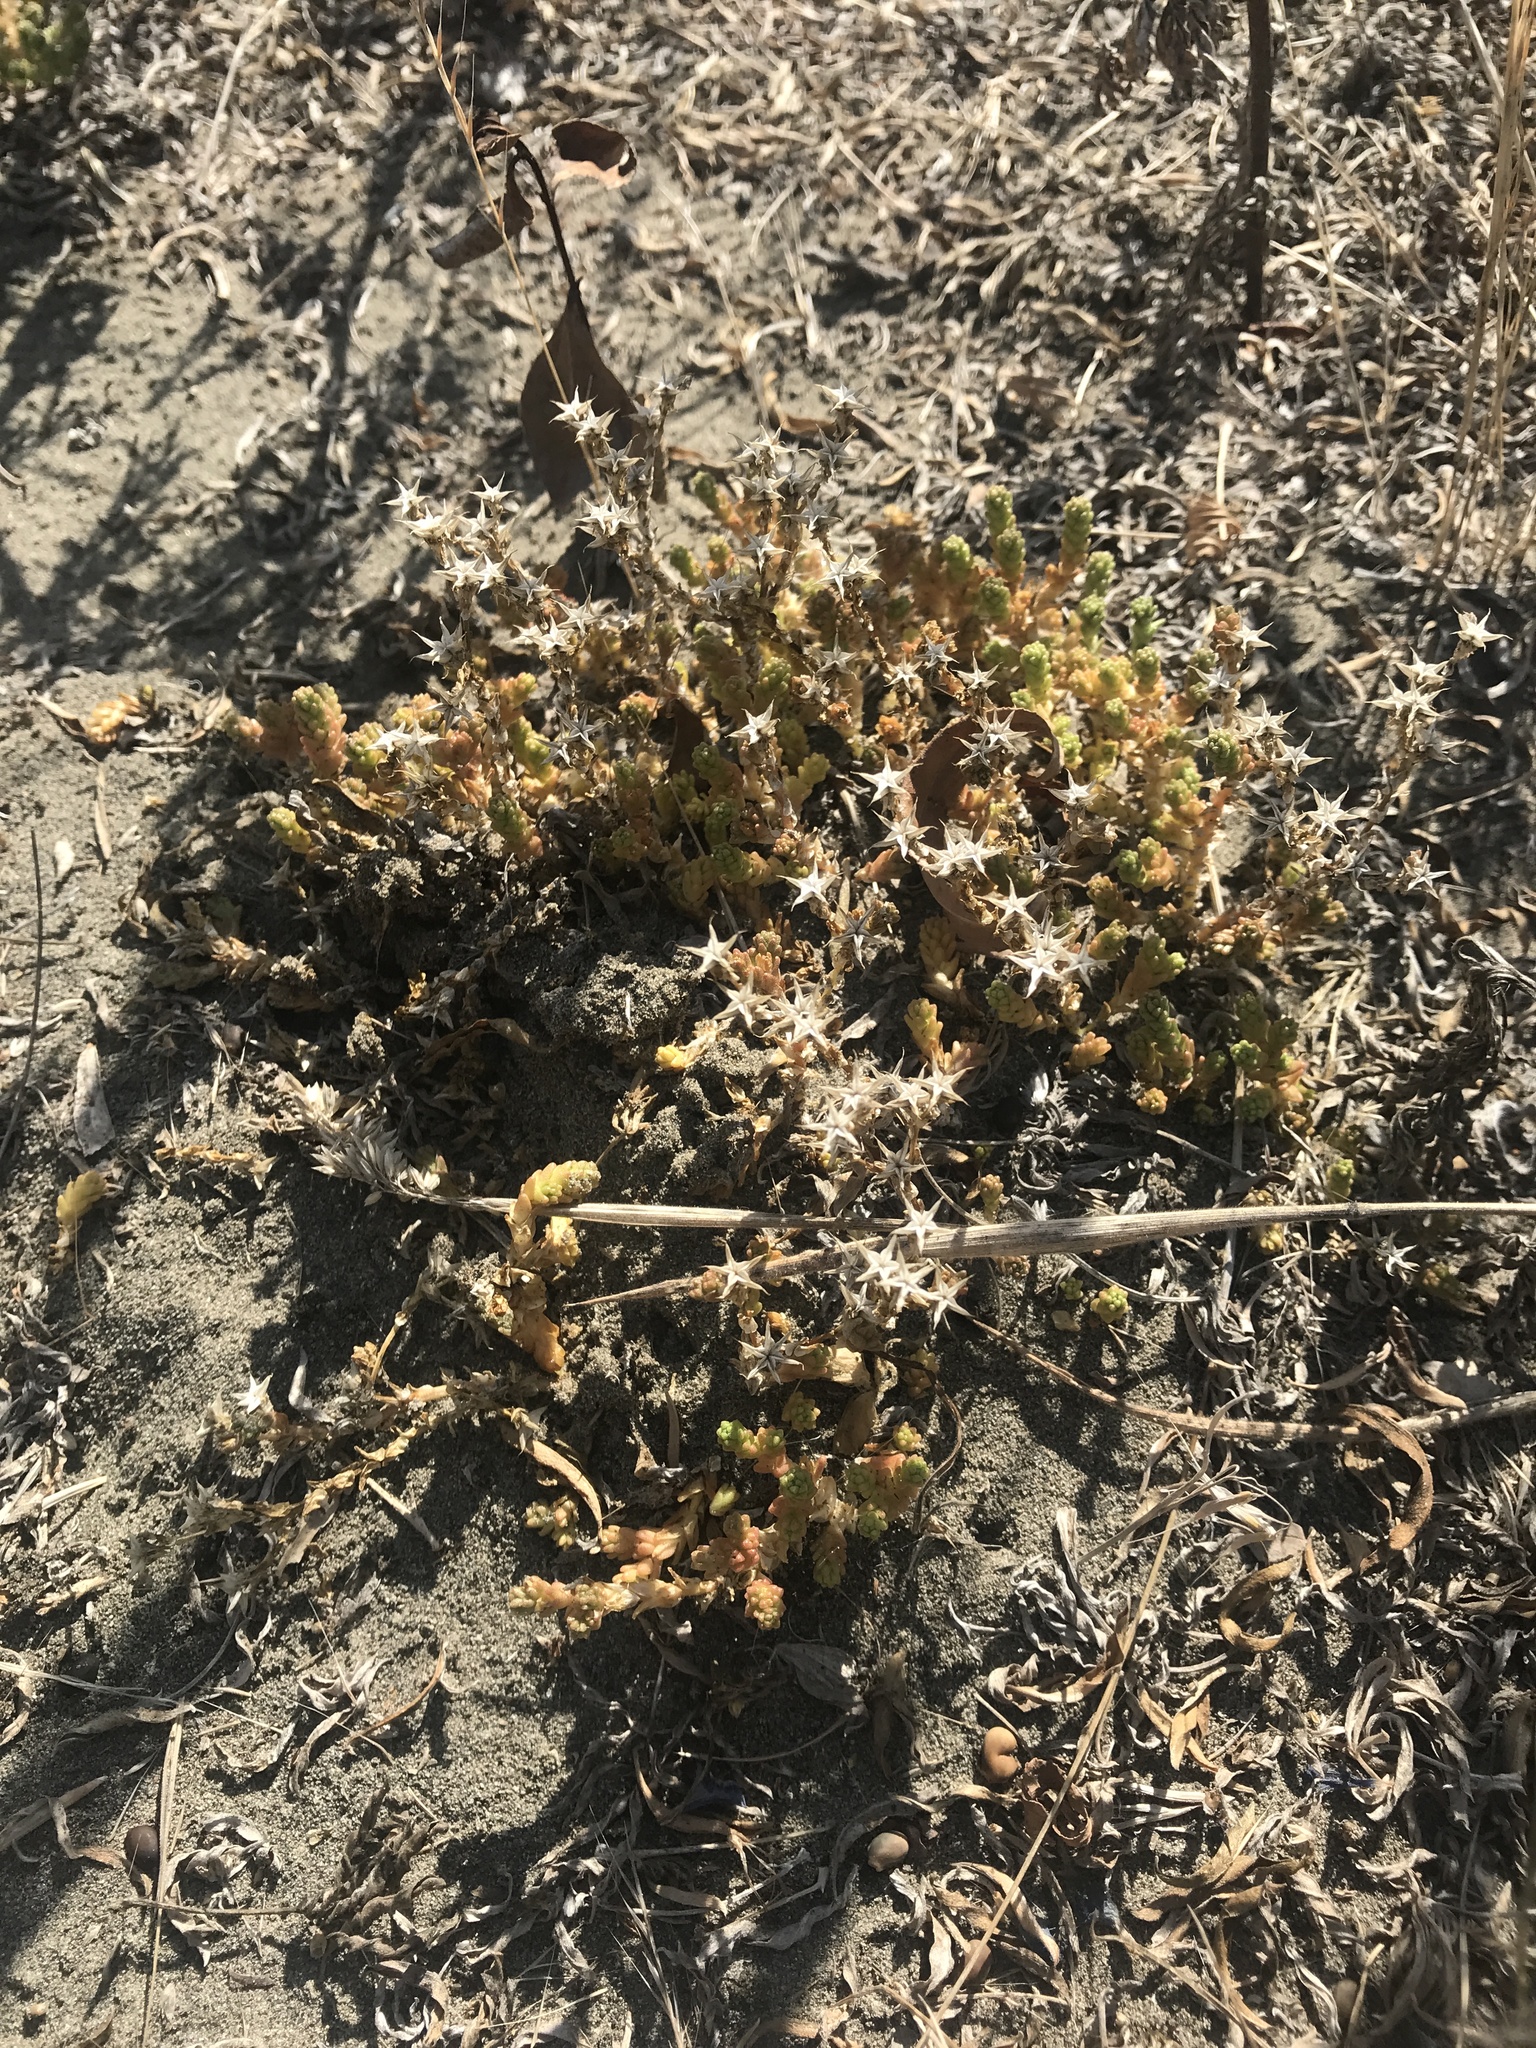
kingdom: Plantae
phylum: Tracheophyta
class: Magnoliopsida
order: Saxifragales
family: Crassulaceae
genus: Sedum
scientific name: Sedum acre
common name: Biting stonecrop
